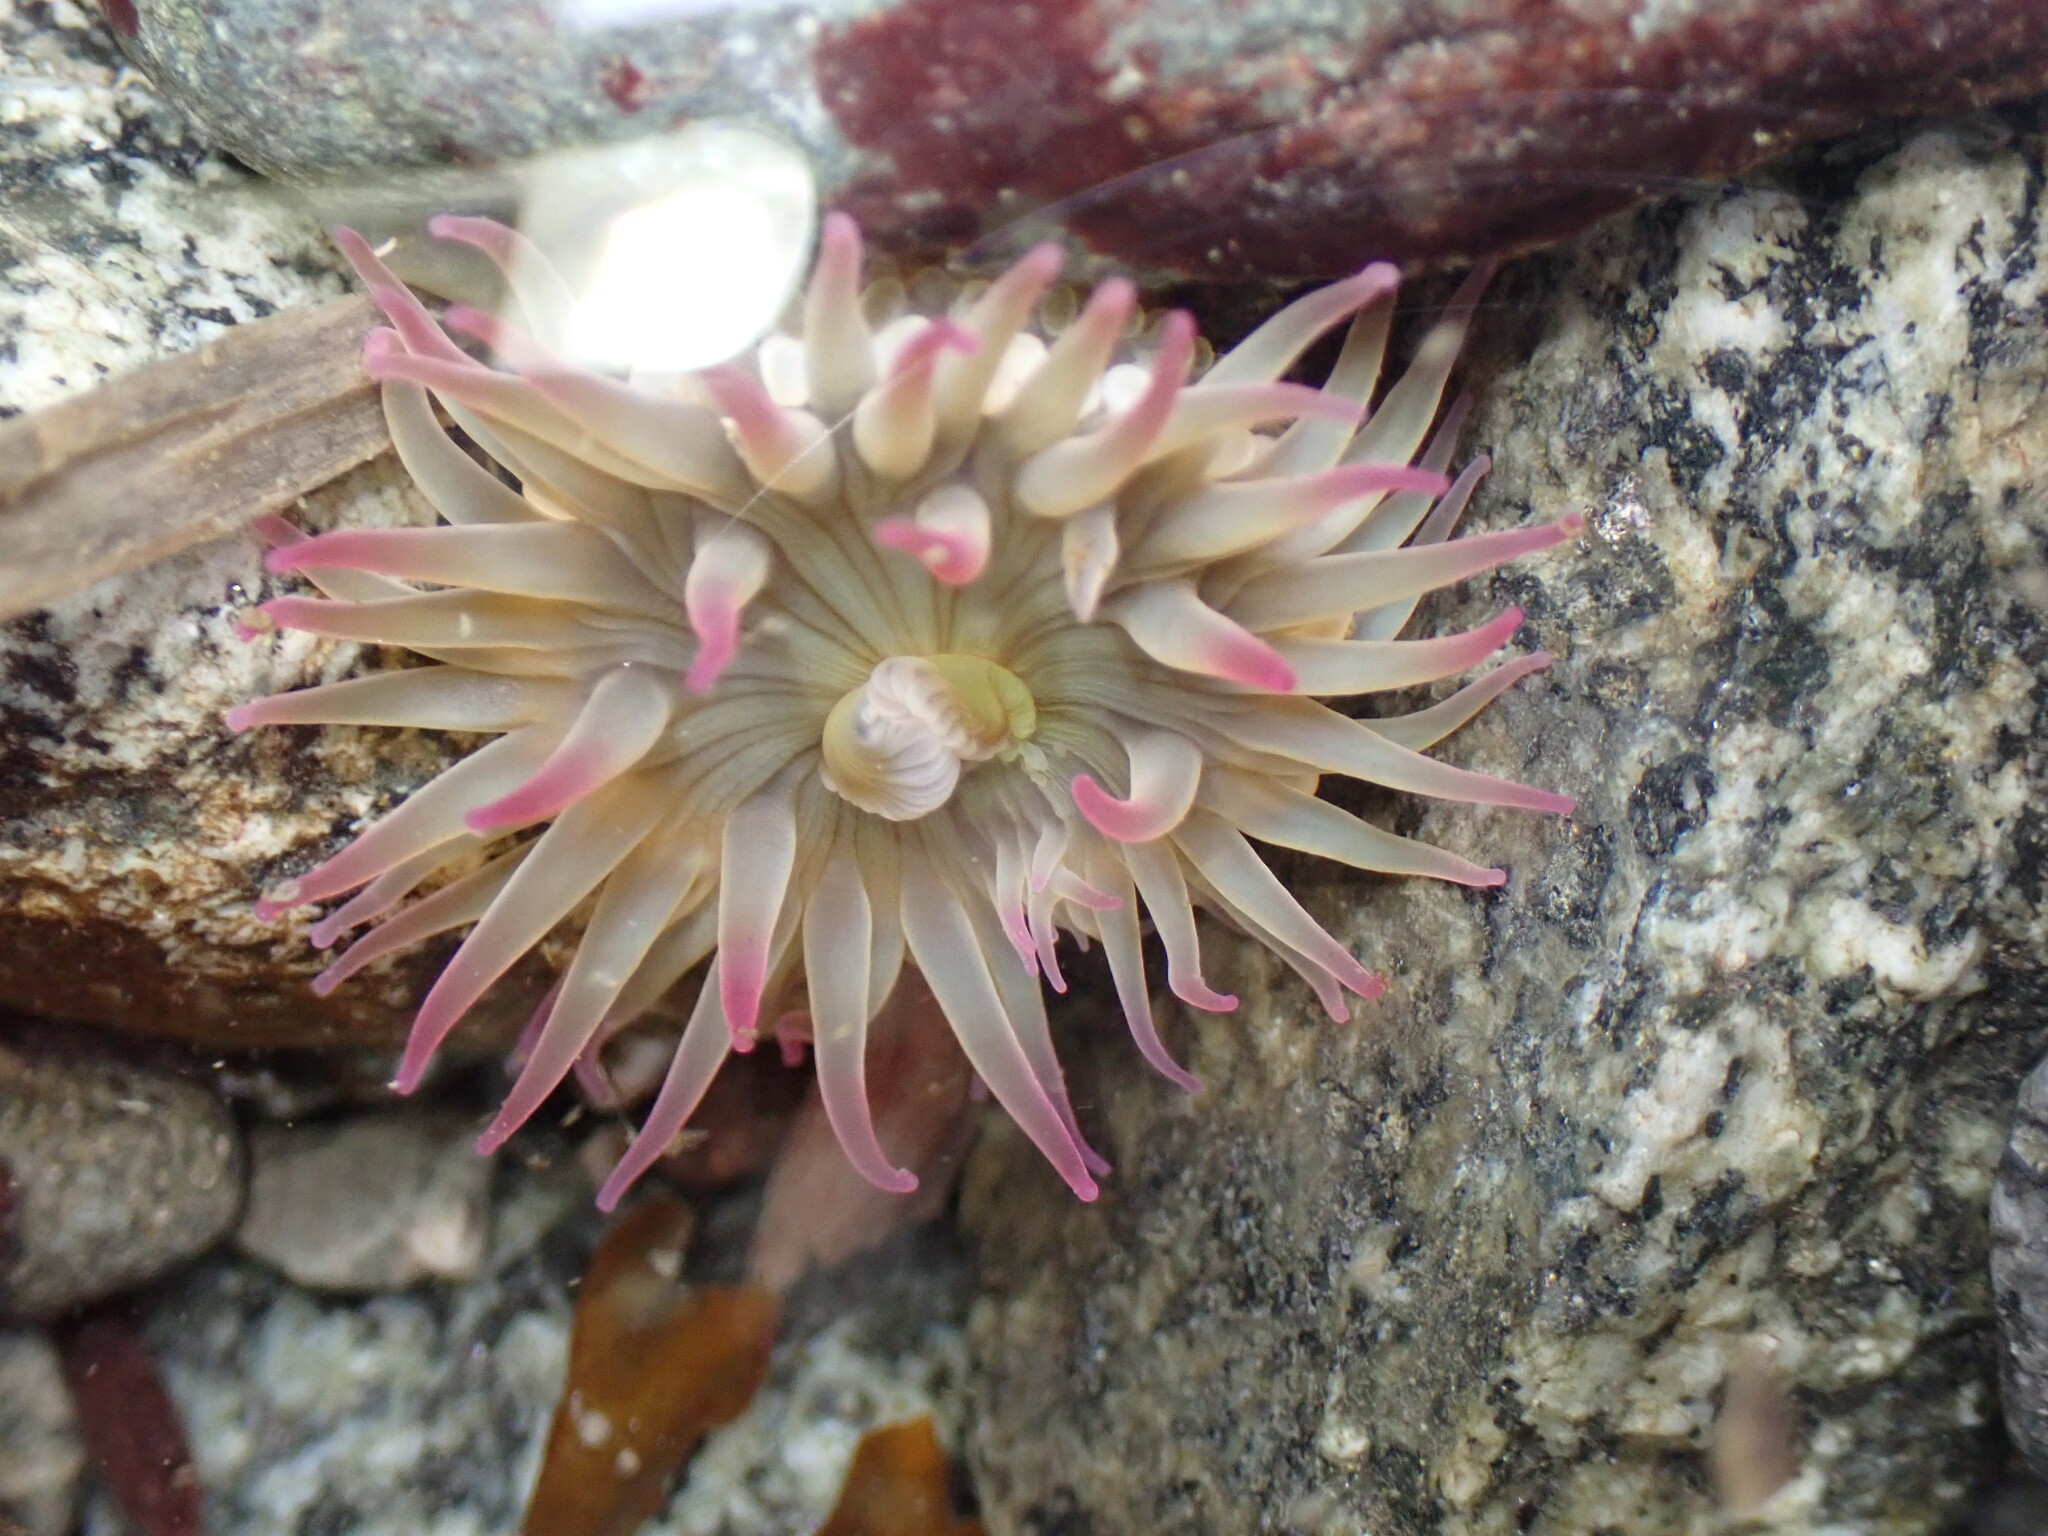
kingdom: Animalia
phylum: Cnidaria
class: Anthozoa
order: Actiniaria
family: Actiniidae
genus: Anthopleura
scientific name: Anthopleura elegantissima
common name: Clonal anemone
